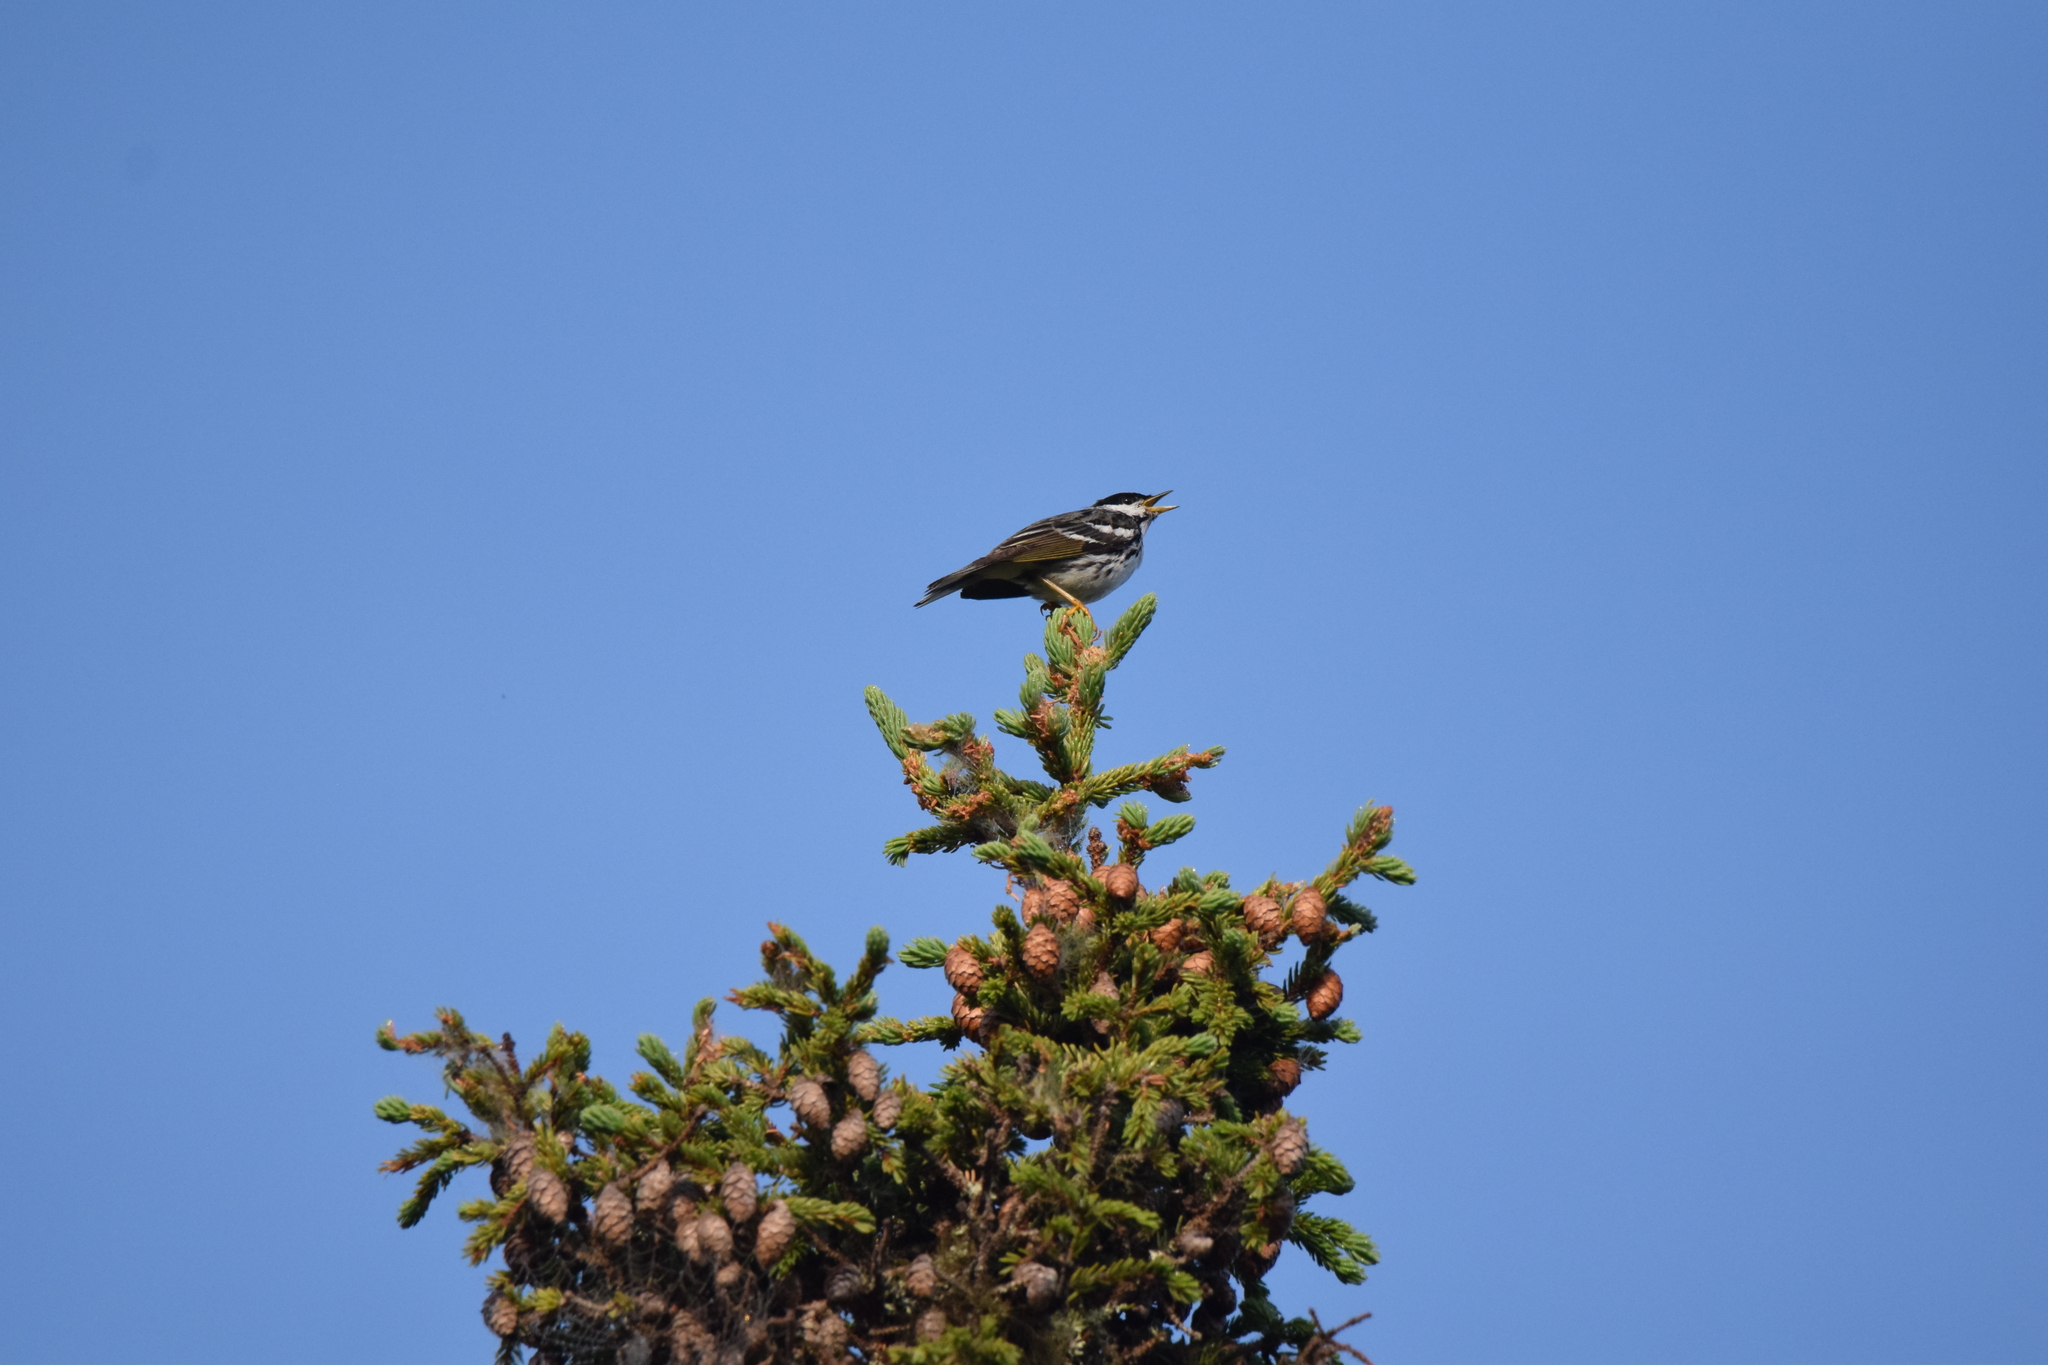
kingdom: Animalia
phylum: Chordata
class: Aves
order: Passeriformes
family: Parulidae
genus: Setophaga
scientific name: Setophaga striata
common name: Blackpoll warbler
